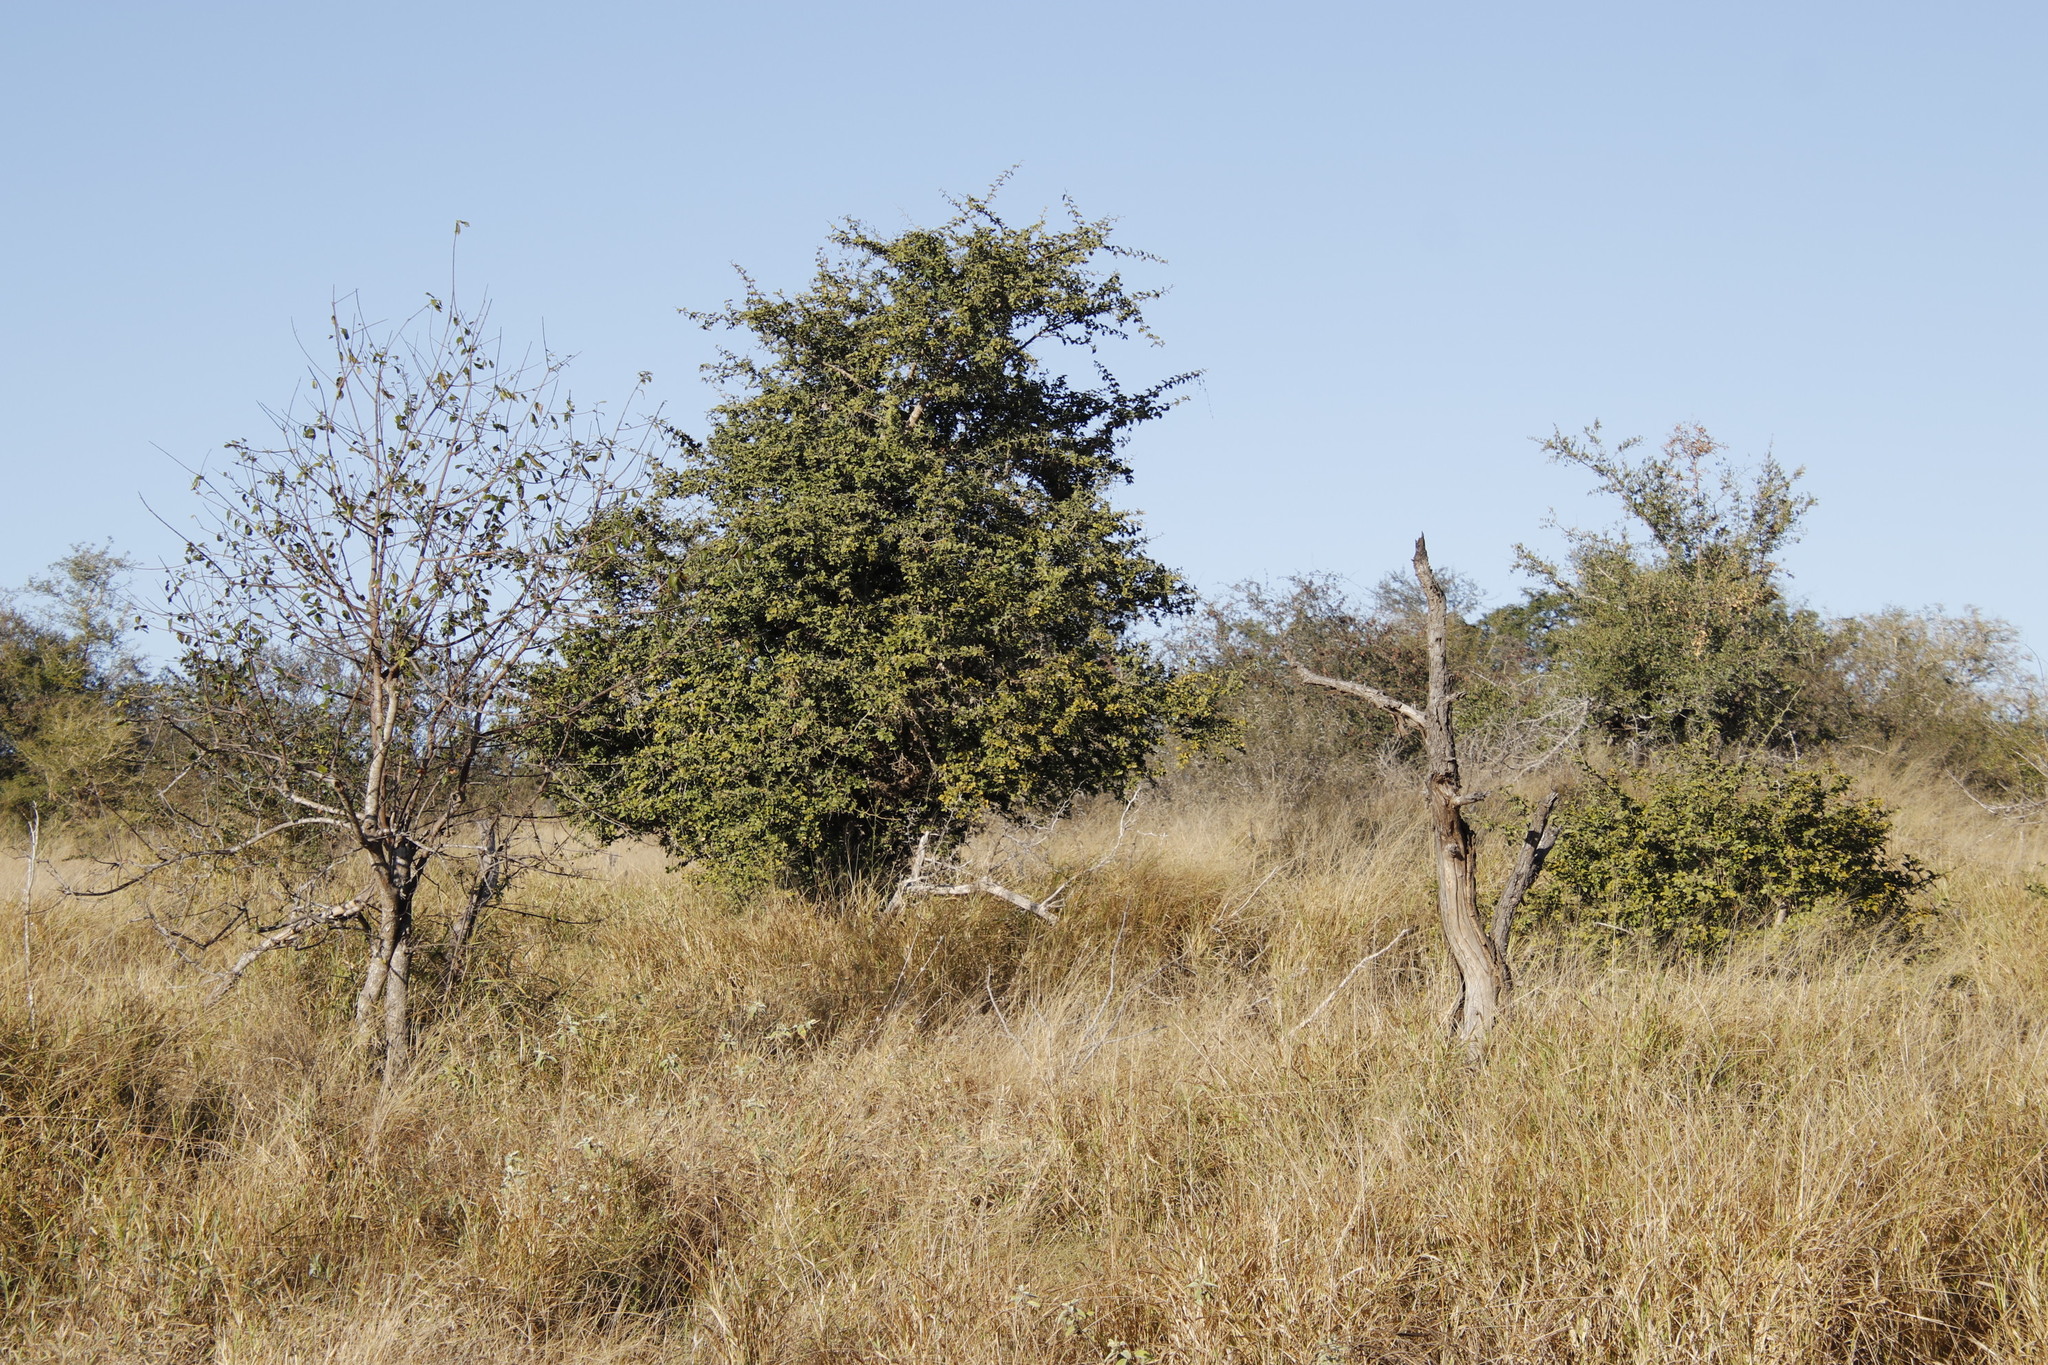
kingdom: Plantae
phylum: Tracheophyta
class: Magnoliopsida
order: Zygophyllales
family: Zygophyllaceae
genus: Balanites
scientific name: Balanites maughamii
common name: Torchwood
